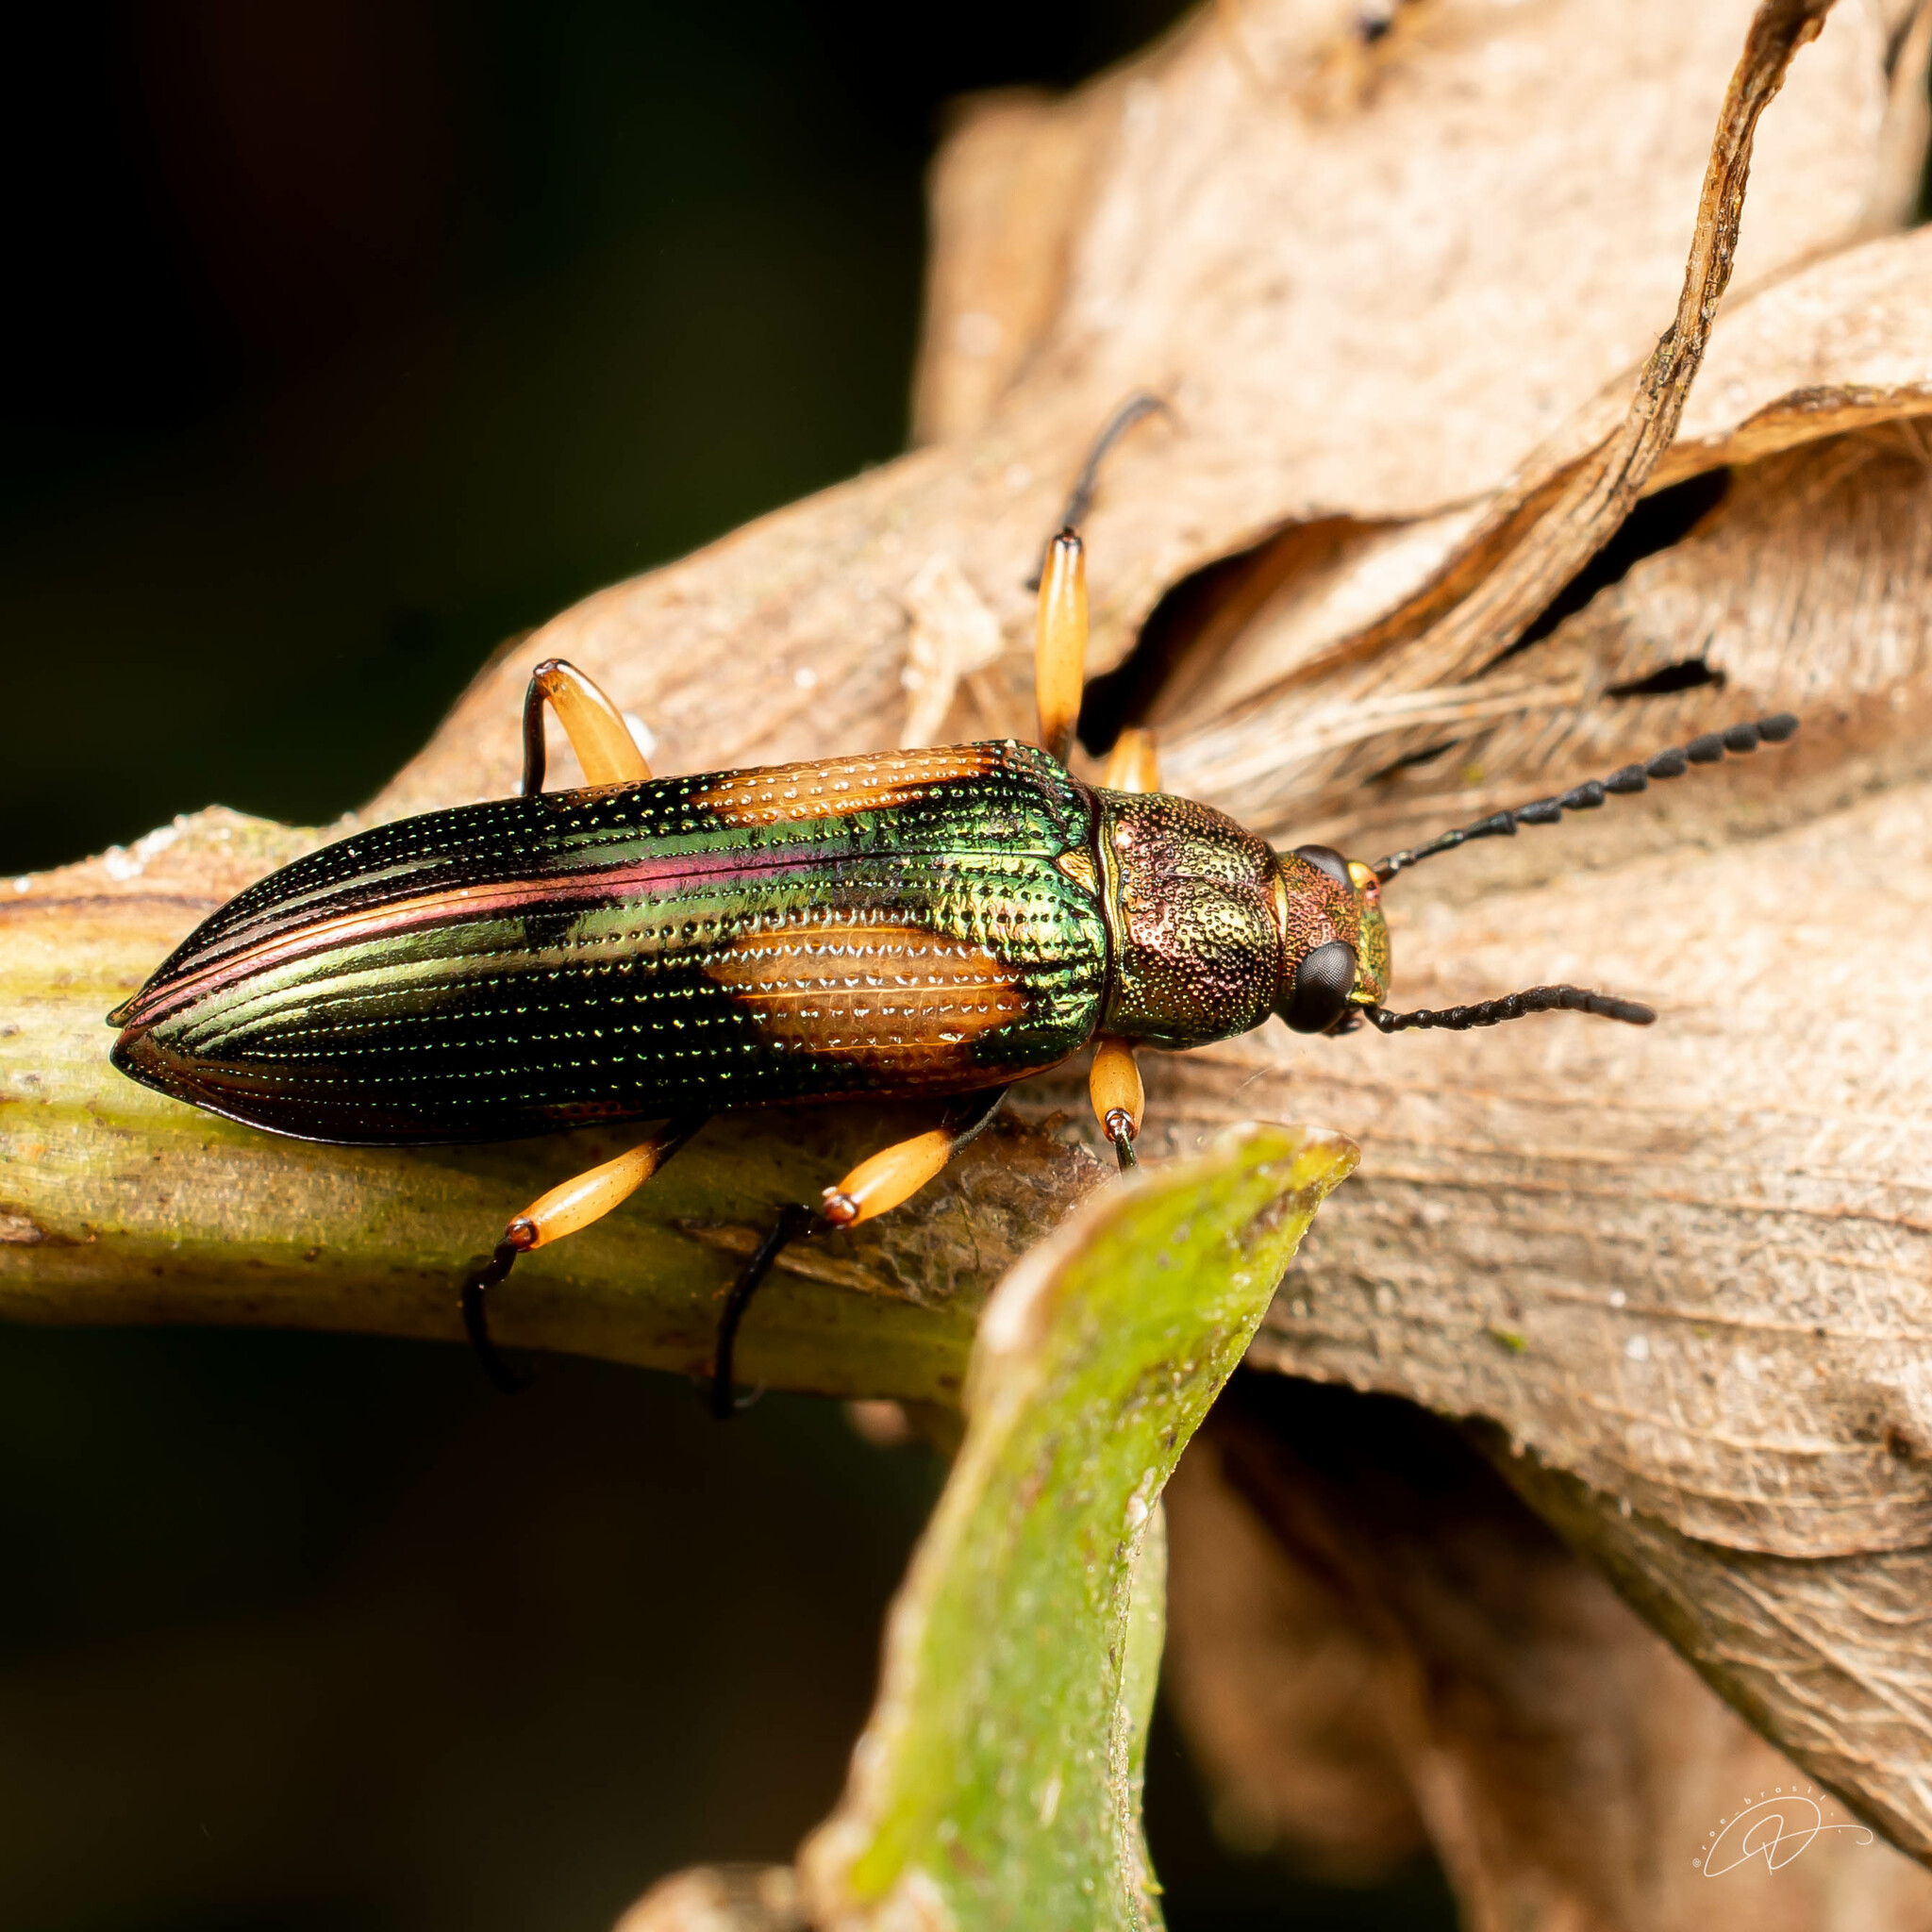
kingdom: Animalia
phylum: Arthropoda
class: Insecta
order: Coleoptera
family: Tenebrionidae
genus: Strongylium
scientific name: Strongylium
